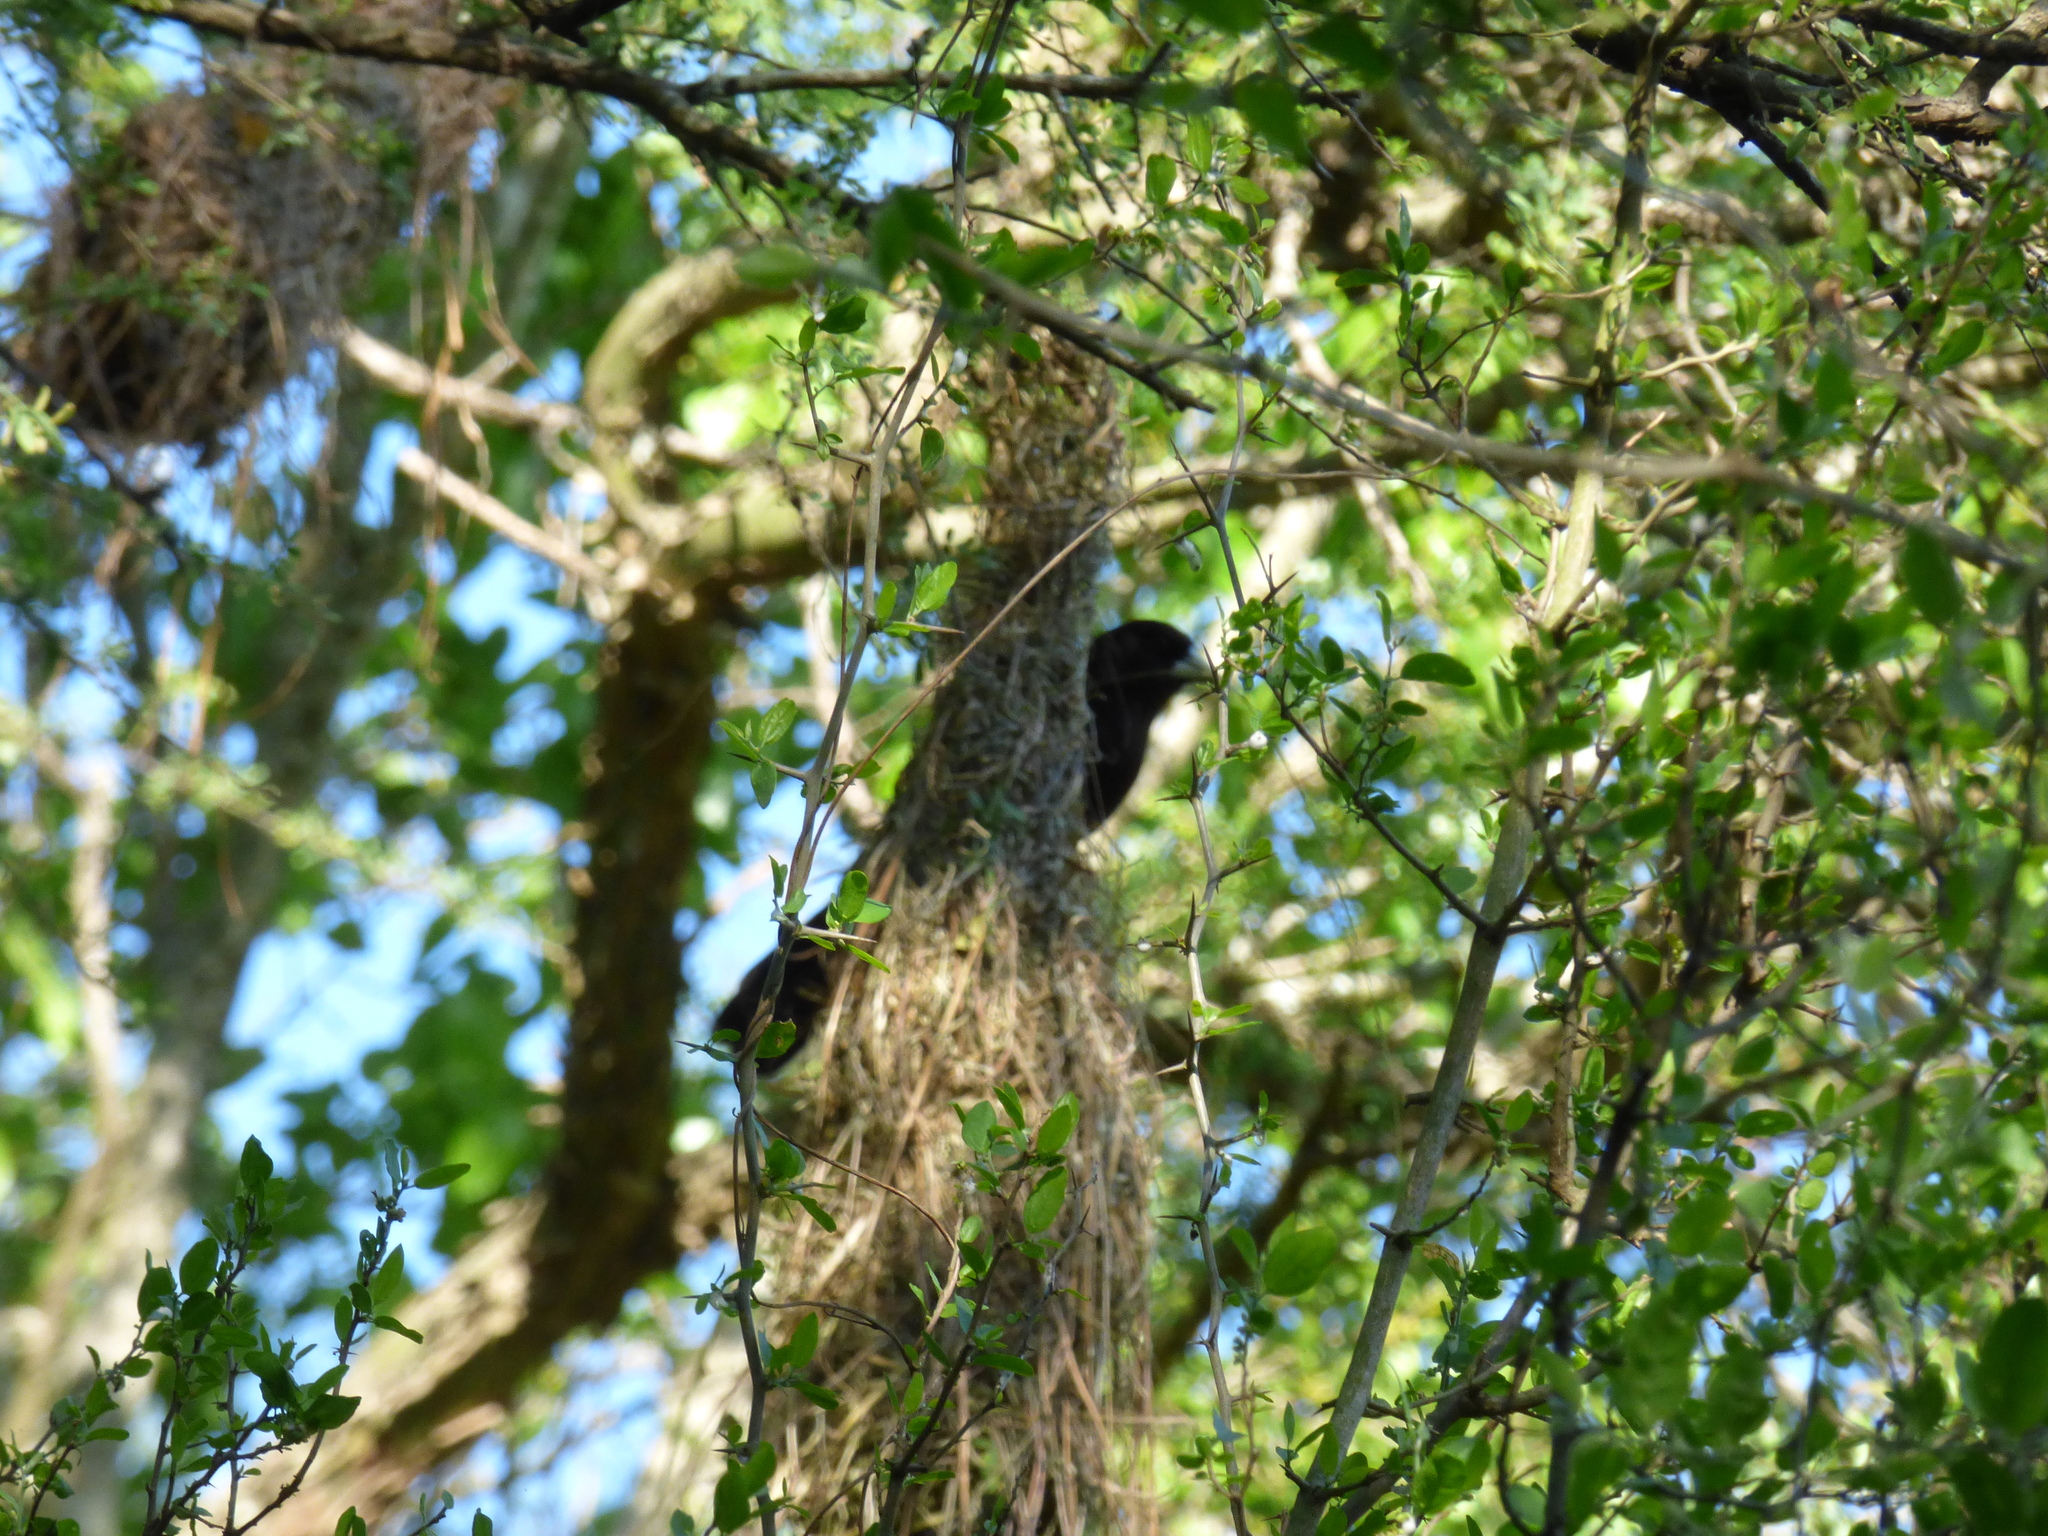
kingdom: Animalia
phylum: Chordata
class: Aves
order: Passeriformes
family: Icteridae
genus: Cacicus
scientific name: Cacicus solitarius
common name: Solitary cacique
